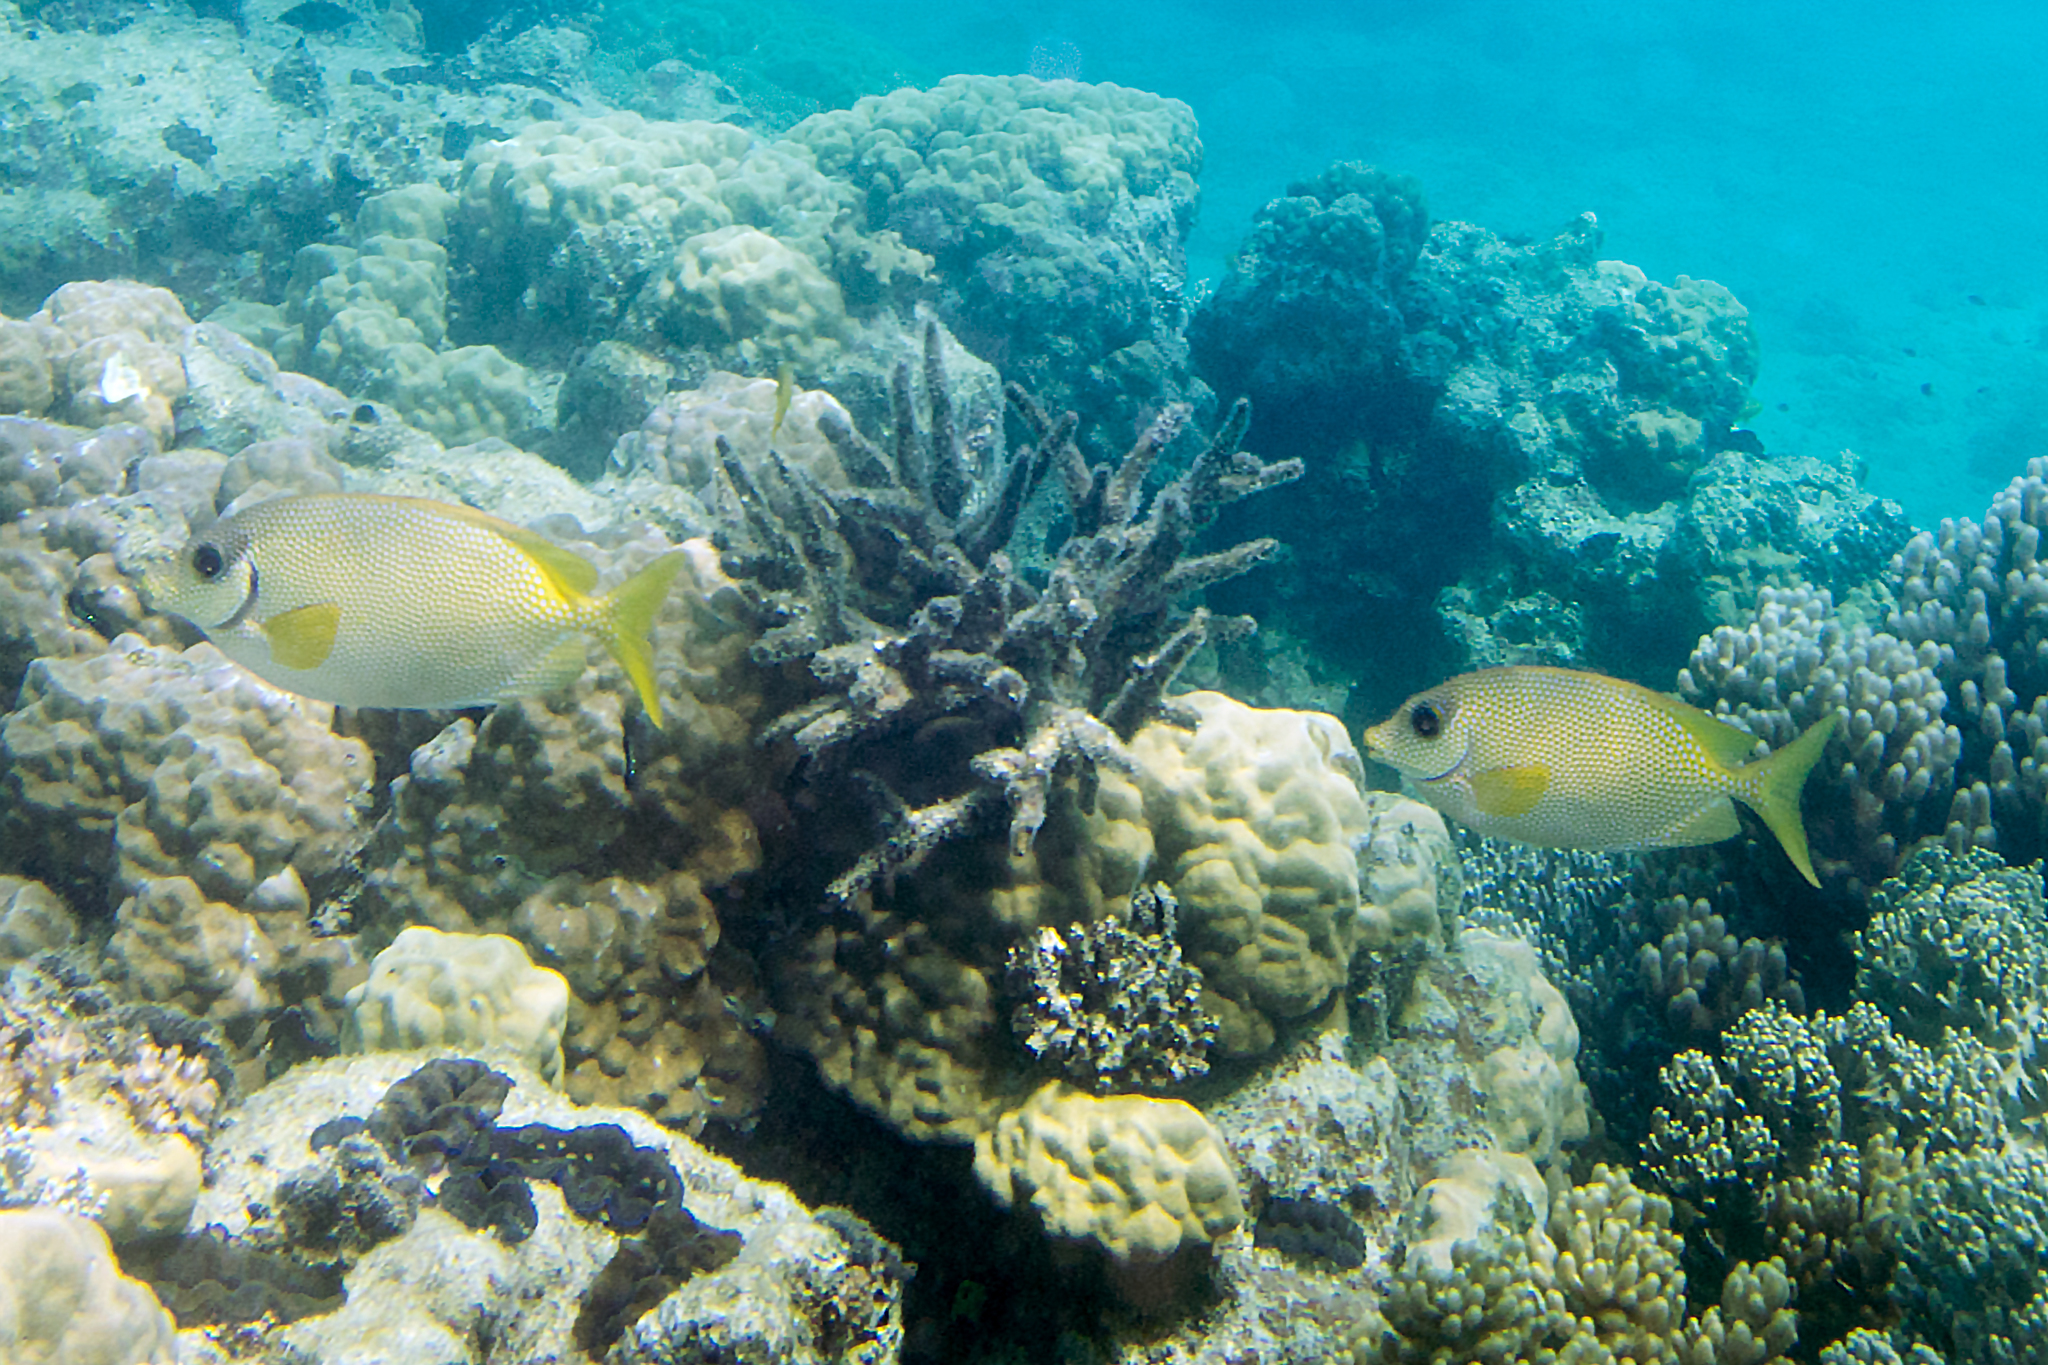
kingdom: Animalia
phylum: Chordata
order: Perciformes
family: Siganidae
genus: Siganus
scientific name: Siganus corallinus
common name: Coral rabbitfish
